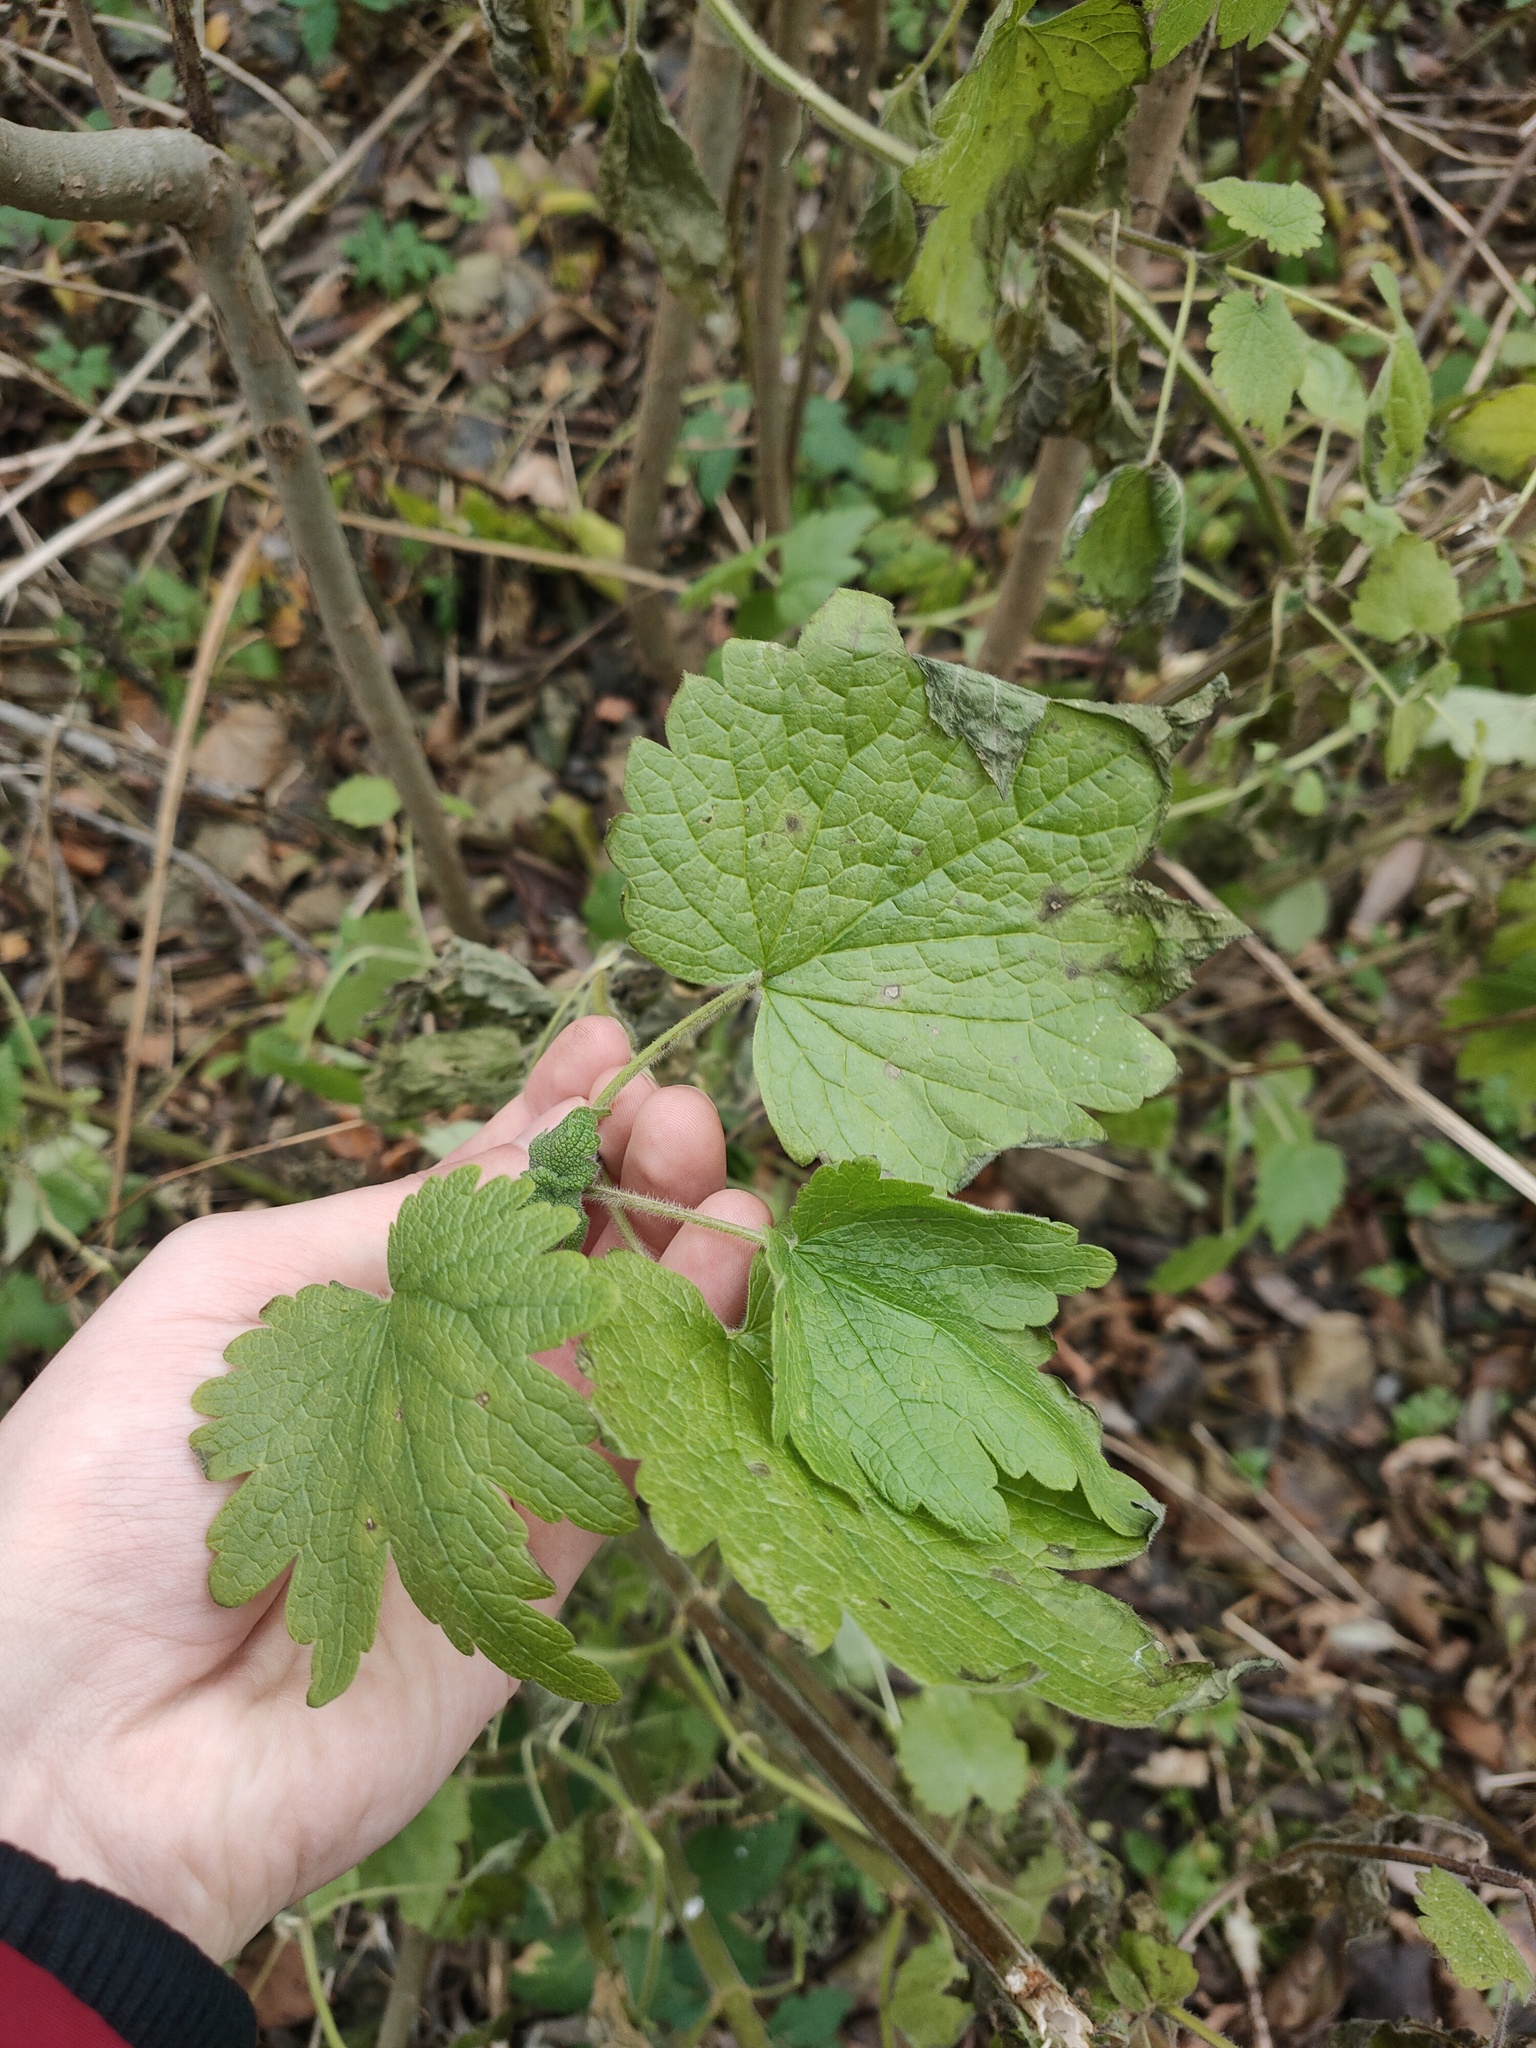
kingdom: Plantae
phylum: Tracheophyta
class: Magnoliopsida
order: Lamiales
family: Lamiaceae
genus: Leonurus
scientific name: Leonurus quinquelobatus
